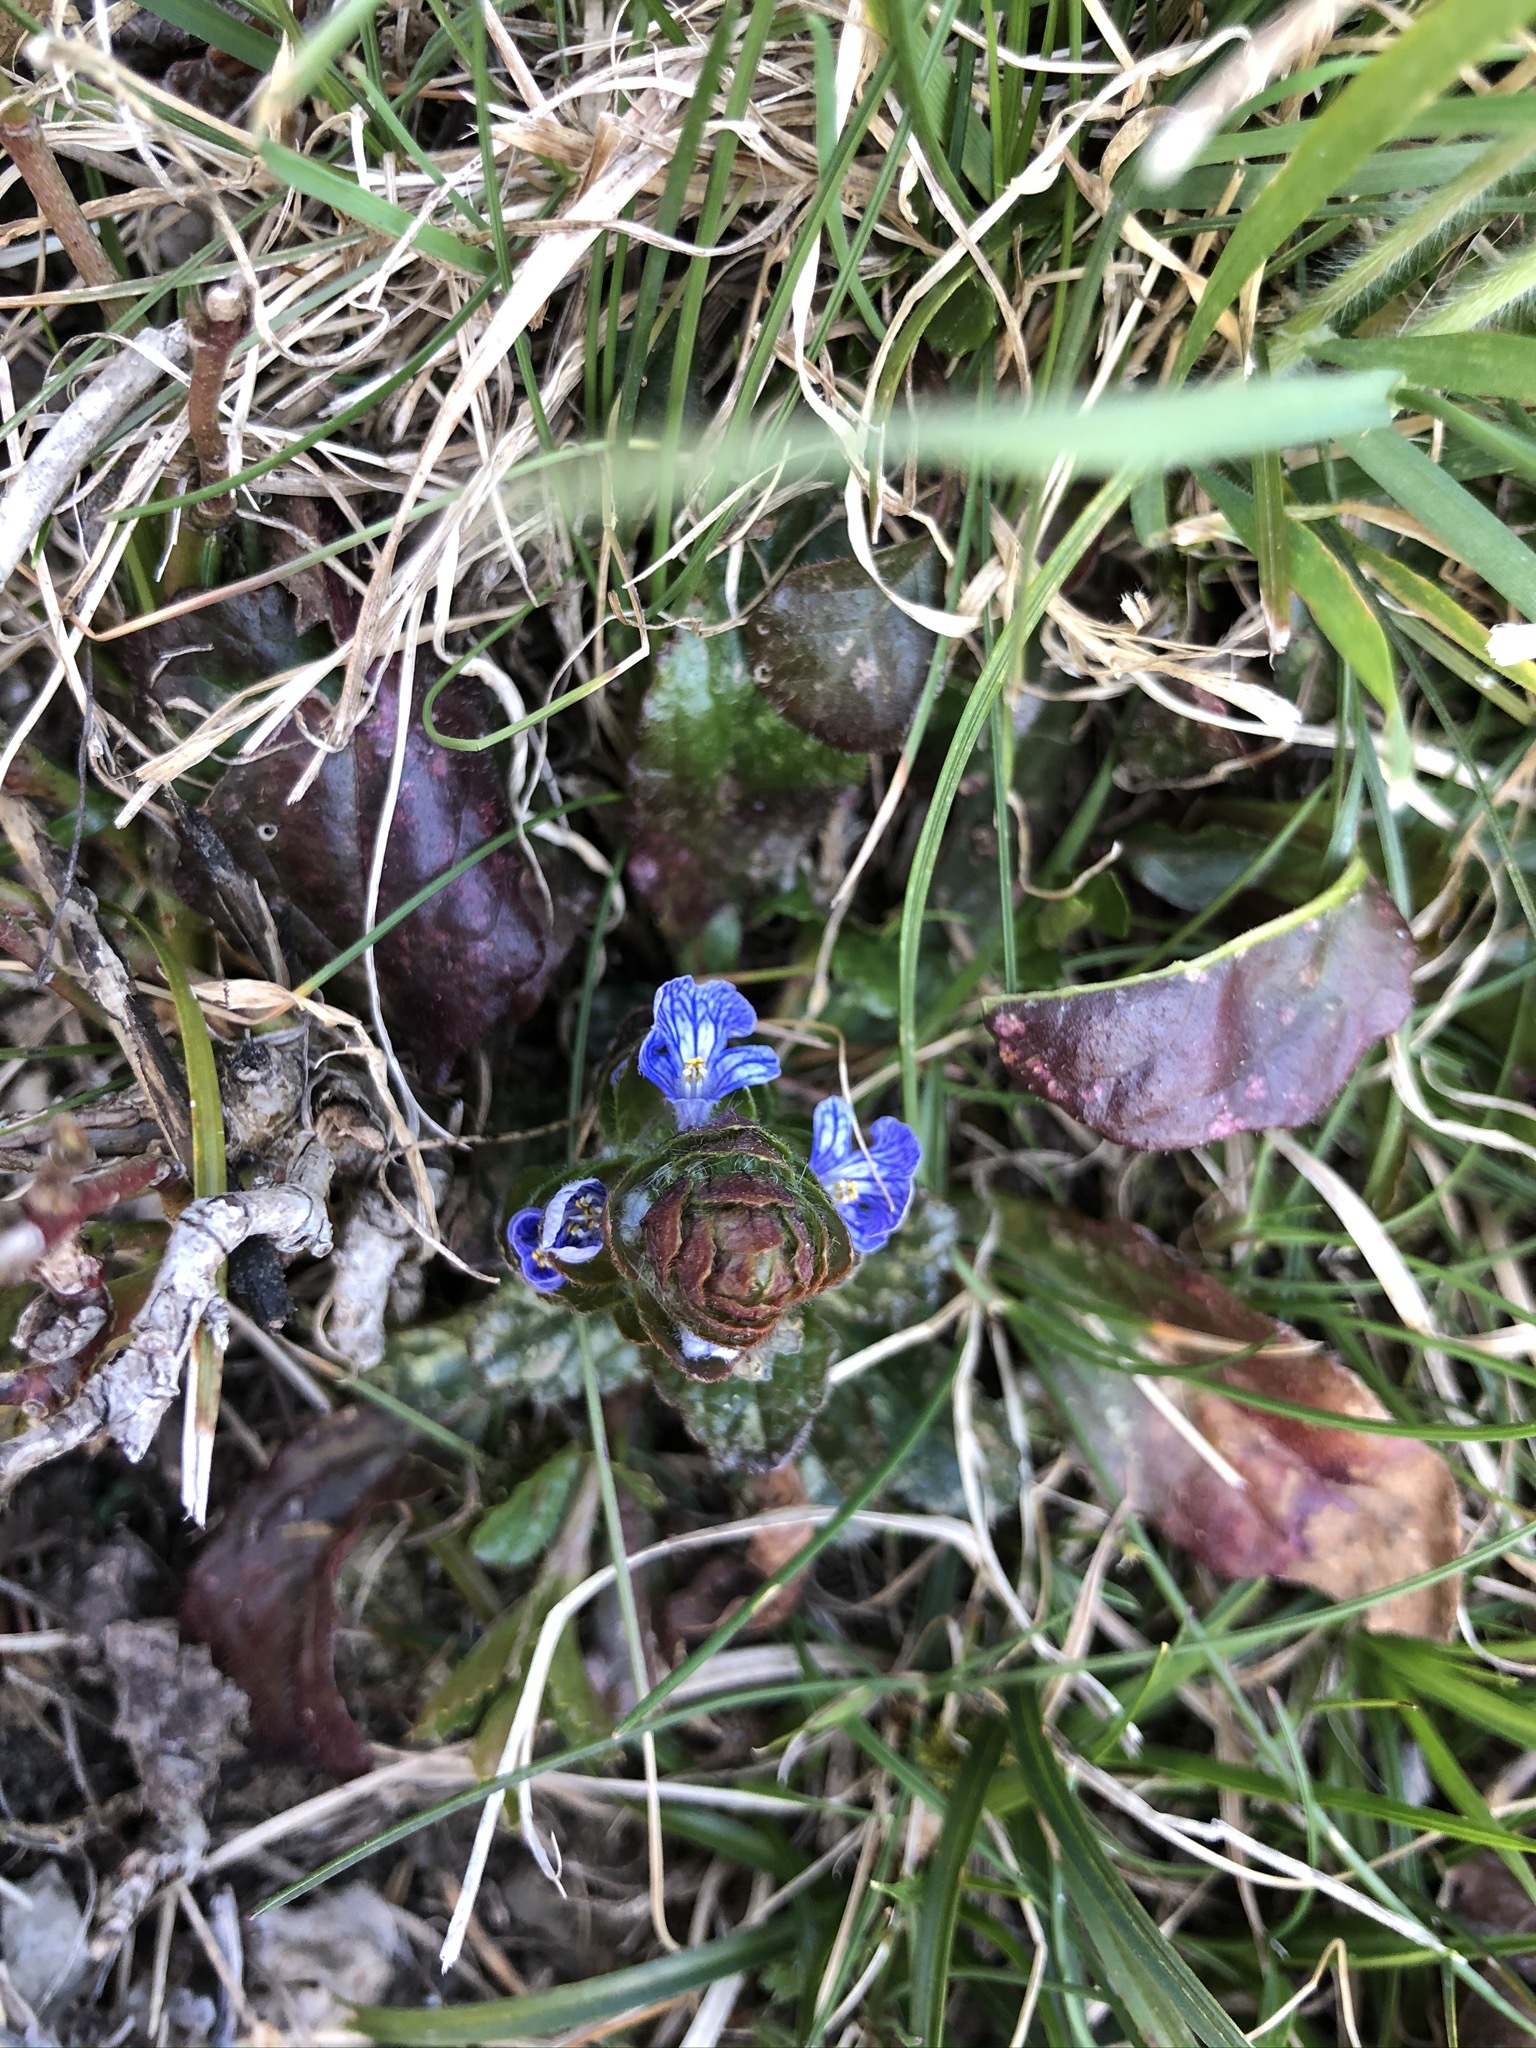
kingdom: Plantae
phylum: Tracheophyta
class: Magnoliopsida
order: Lamiales
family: Lamiaceae
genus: Ajuga
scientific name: Ajuga reptans
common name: Bugle
